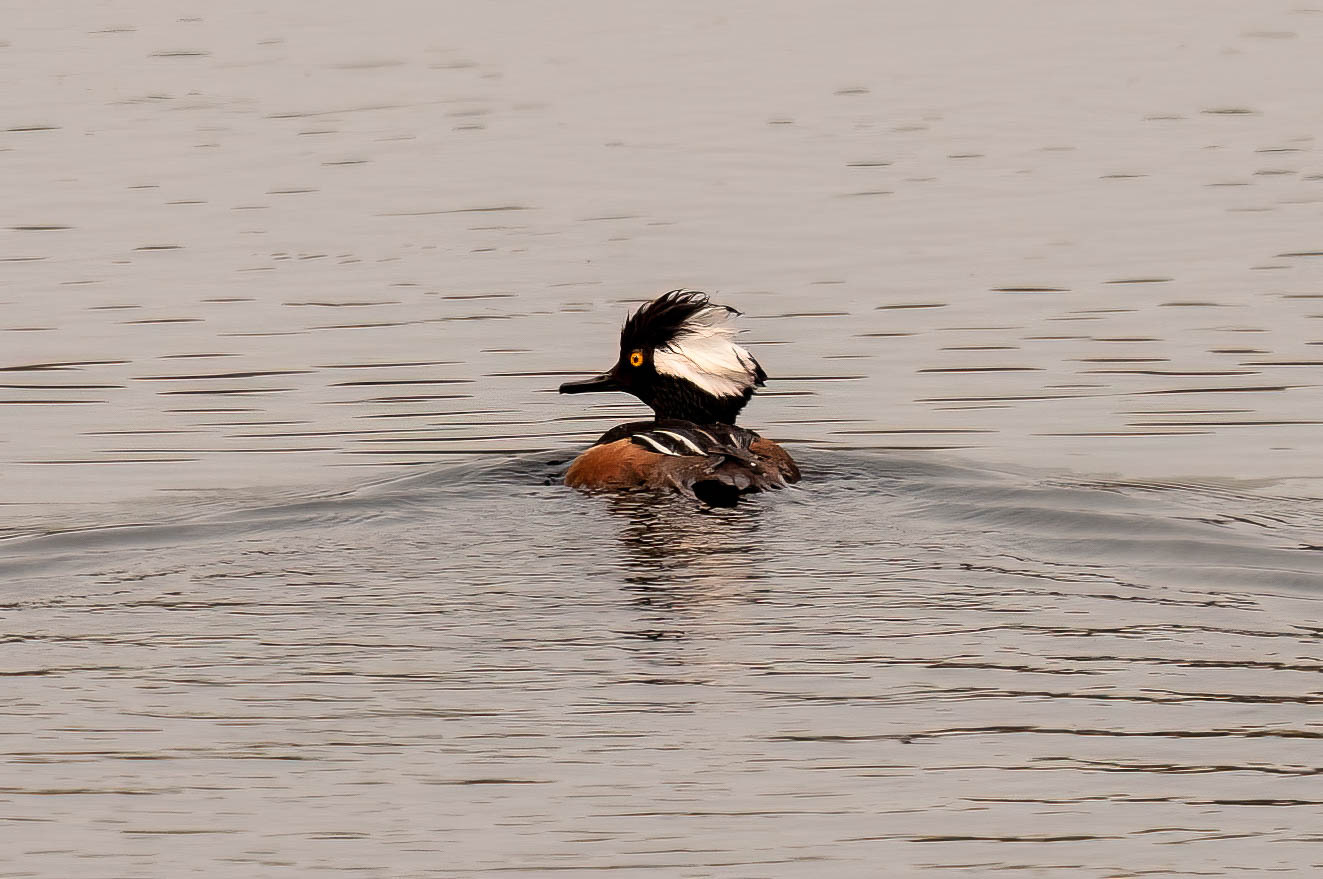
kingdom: Animalia
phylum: Chordata
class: Aves
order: Anseriformes
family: Anatidae
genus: Lophodytes
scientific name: Lophodytes cucullatus
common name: Hooded merganser
